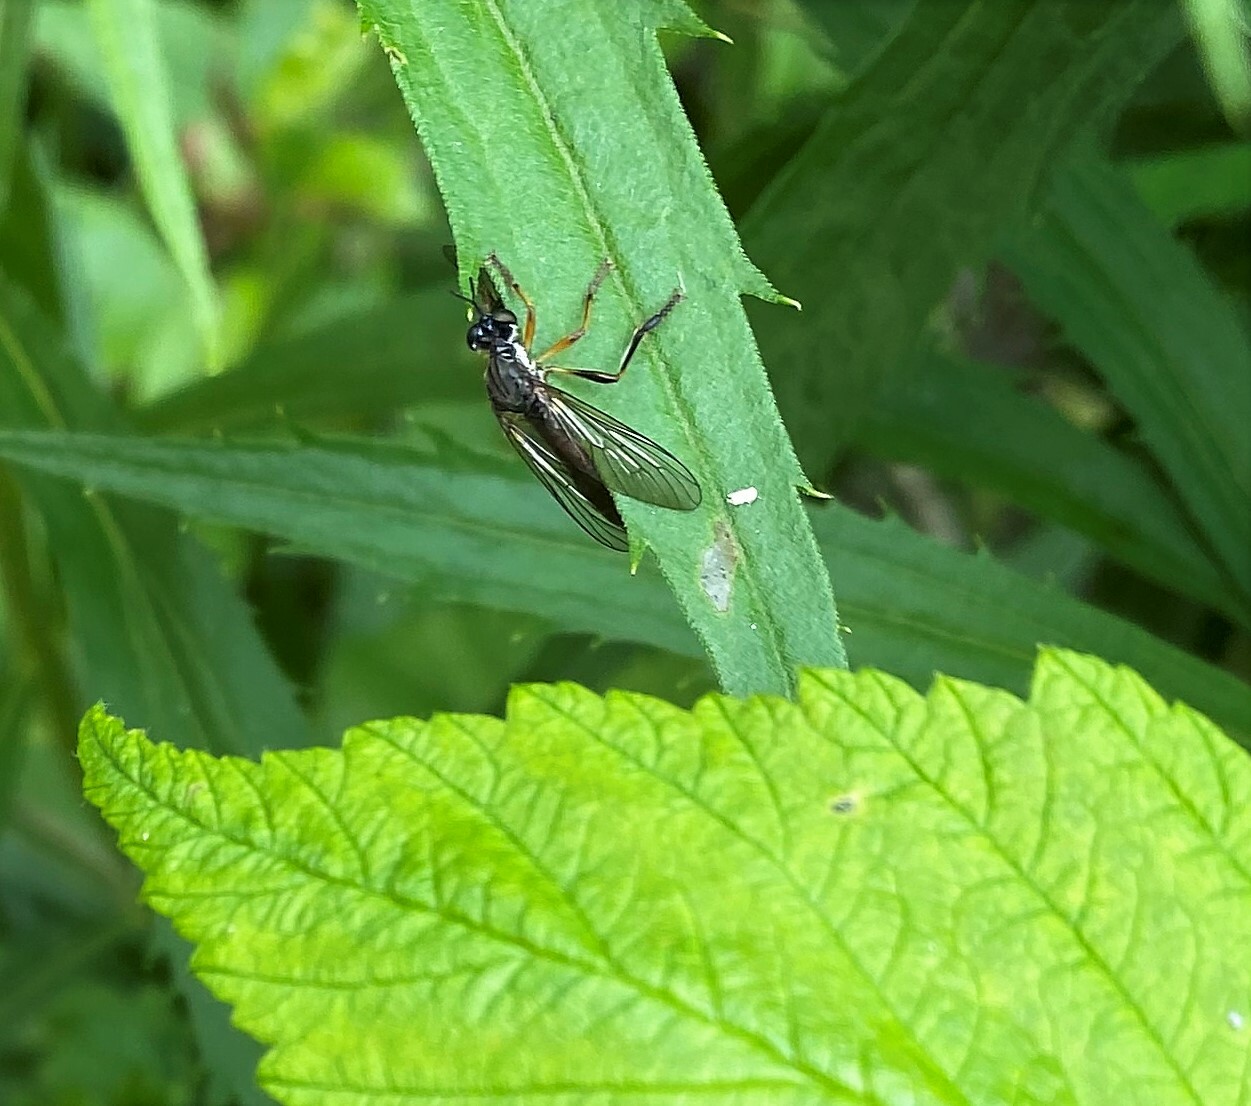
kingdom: Animalia
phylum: Arthropoda
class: Insecta
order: Diptera
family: Asilidae
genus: Dioctria
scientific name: Dioctria hyalipennis
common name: Stripe-legged robberfly
